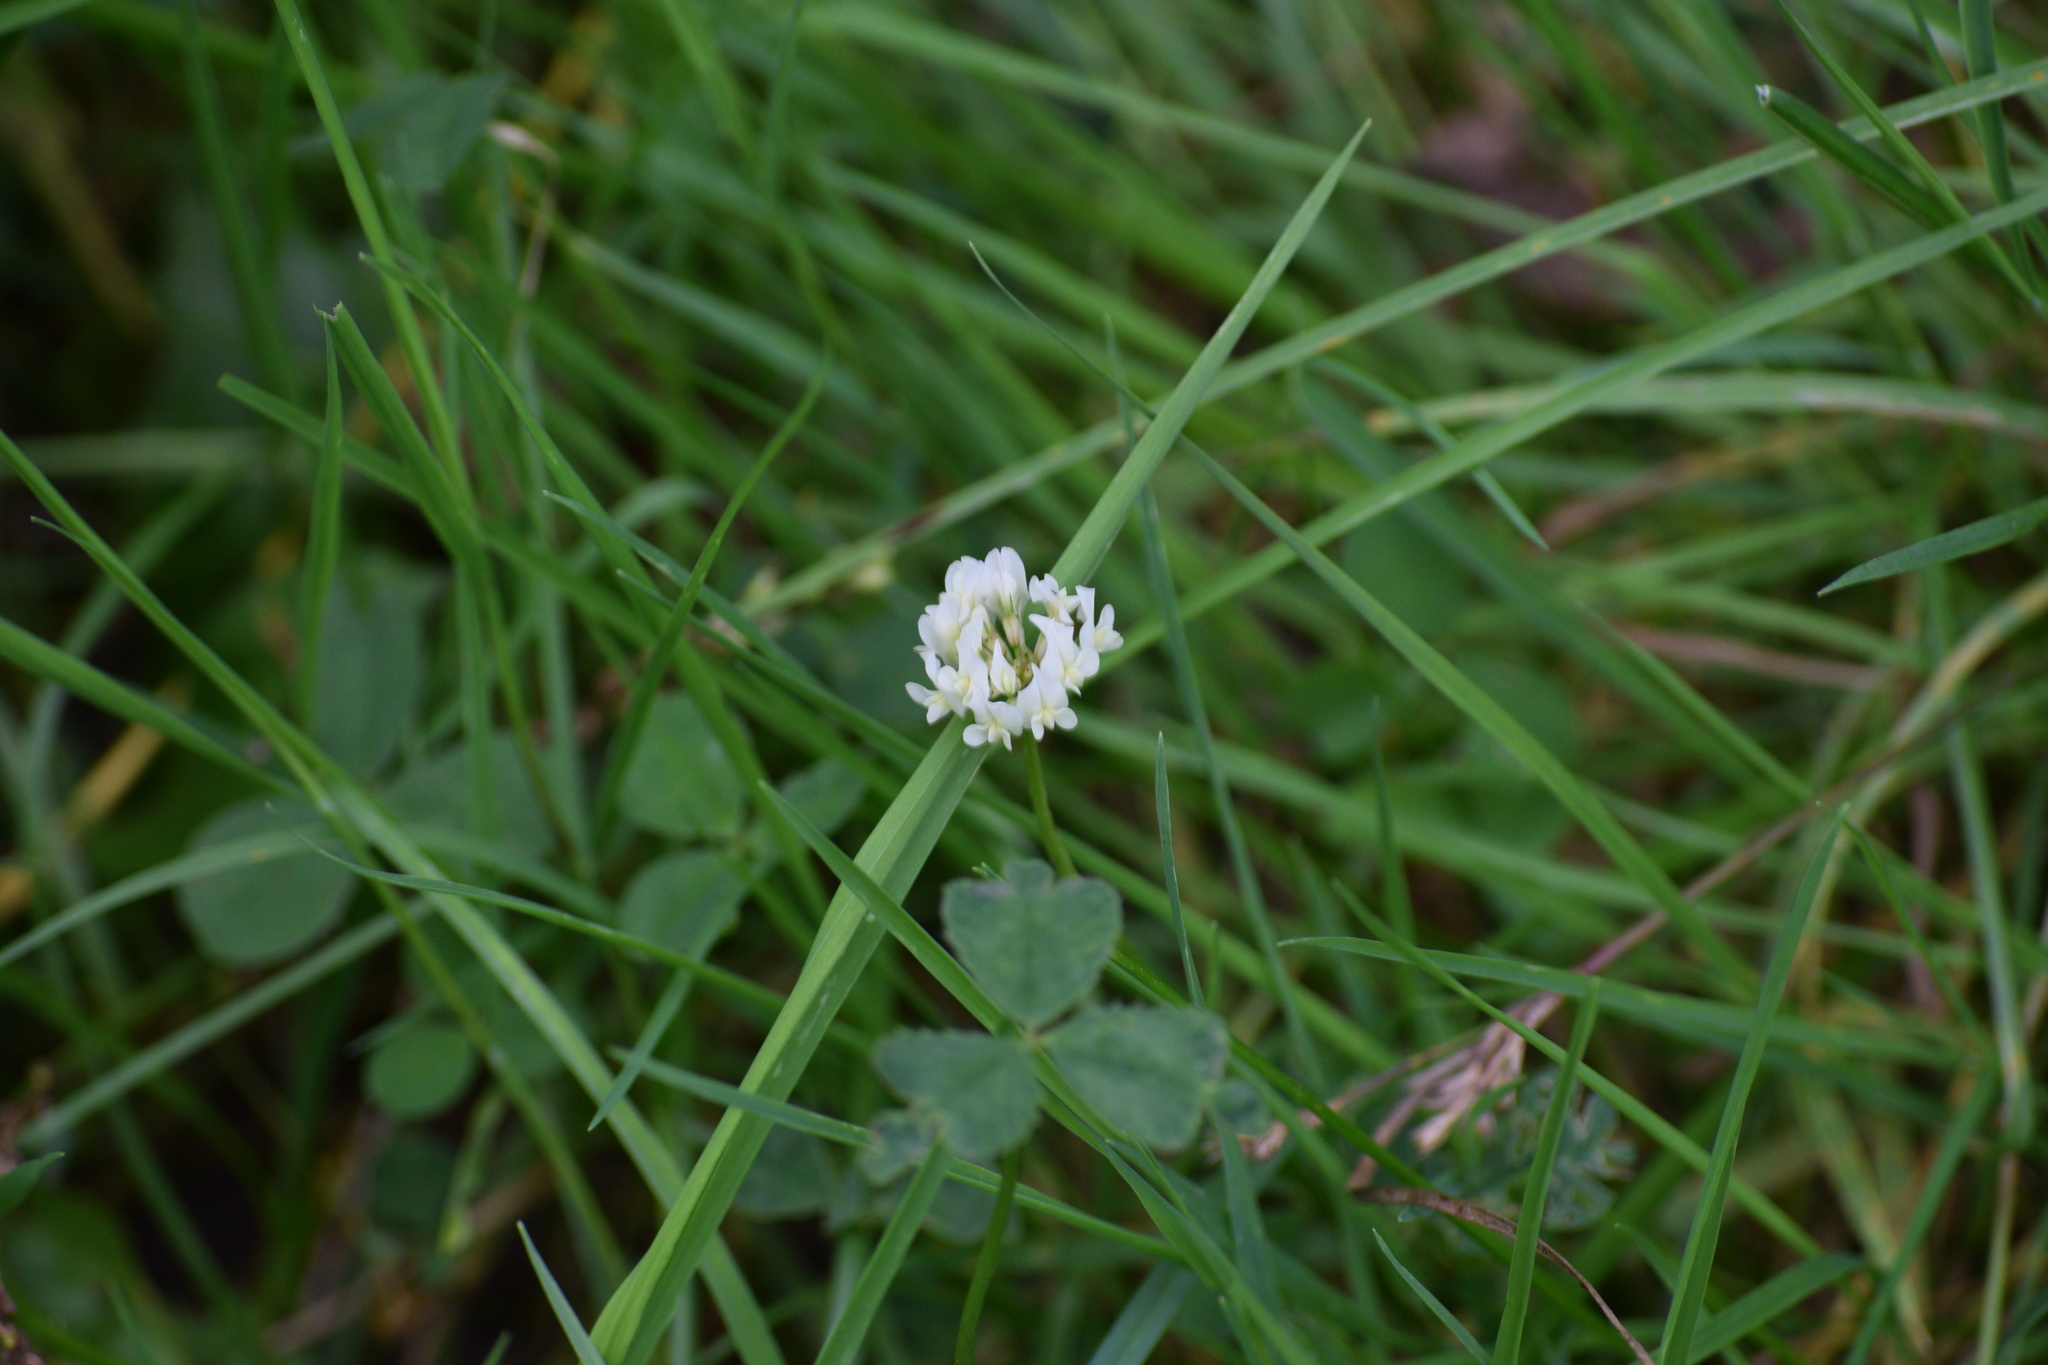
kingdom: Plantae
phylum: Tracheophyta
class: Magnoliopsida
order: Fabales
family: Fabaceae
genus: Trifolium
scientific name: Trifolium repens
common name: White clover
